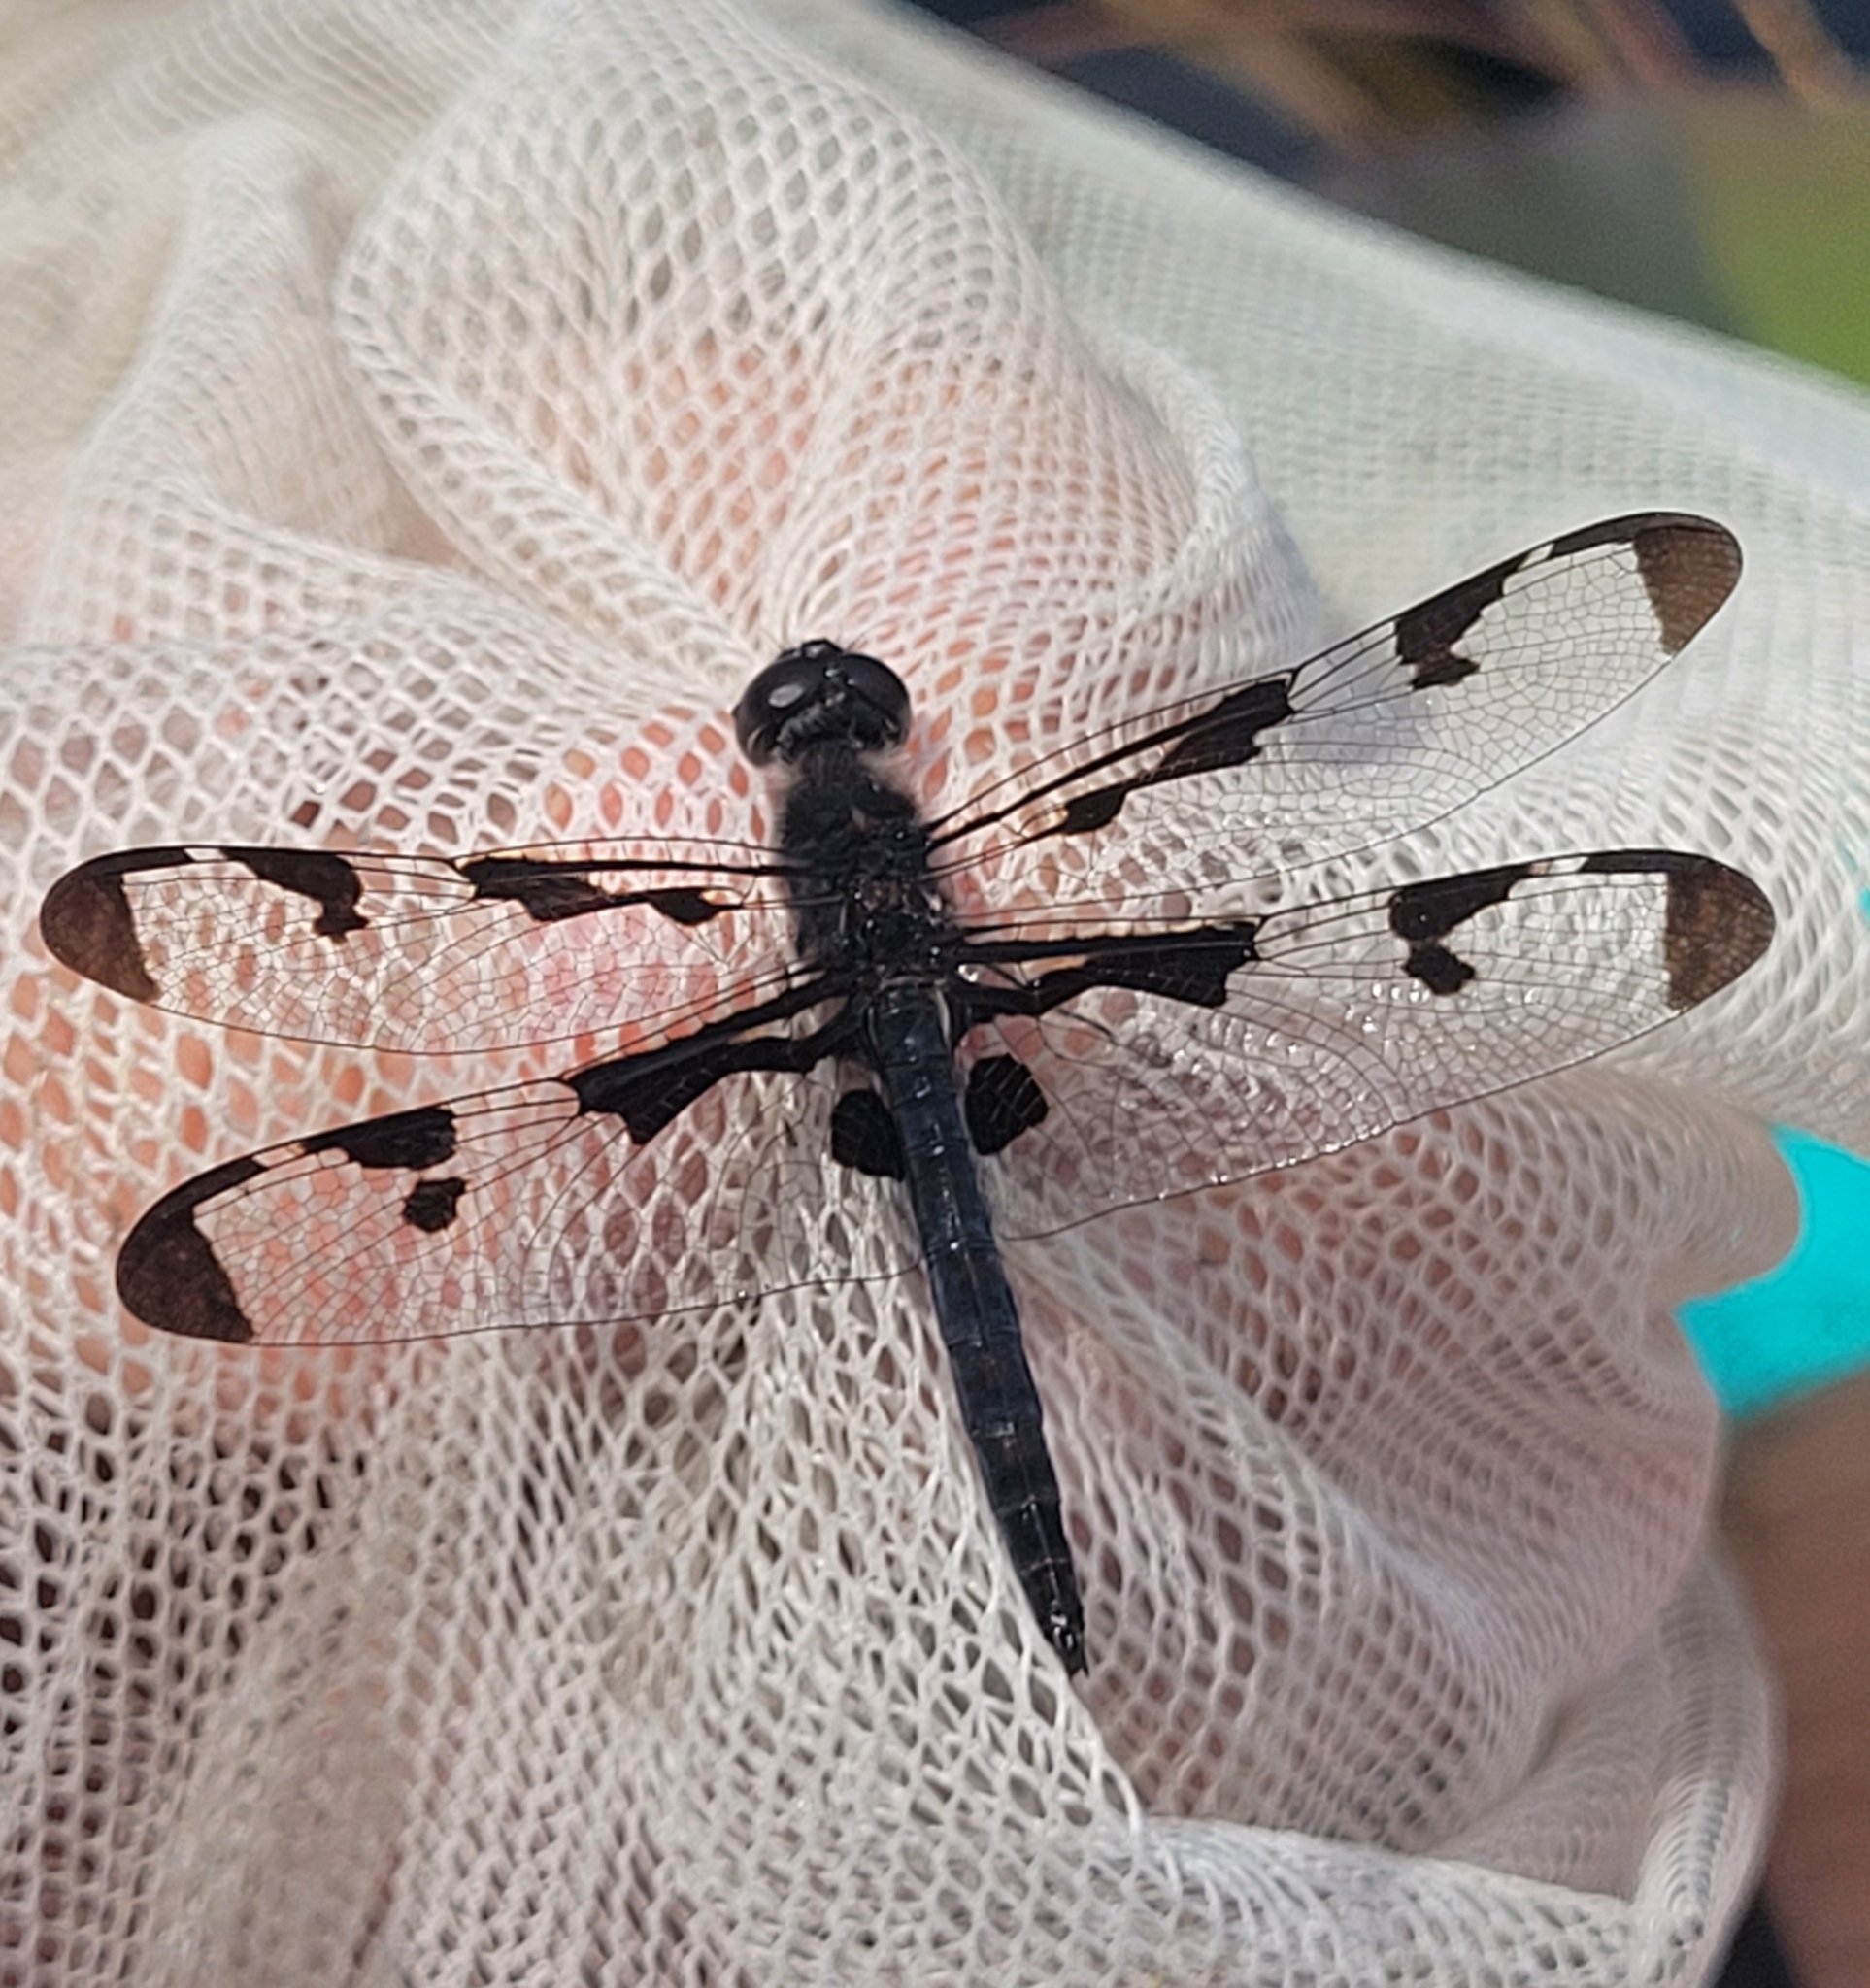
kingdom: Animalia
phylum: Arthropoda
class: Insecta
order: Odonata
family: Libellulidae
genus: Celithemis
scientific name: Celithemis fasciata
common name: Banded pennant
